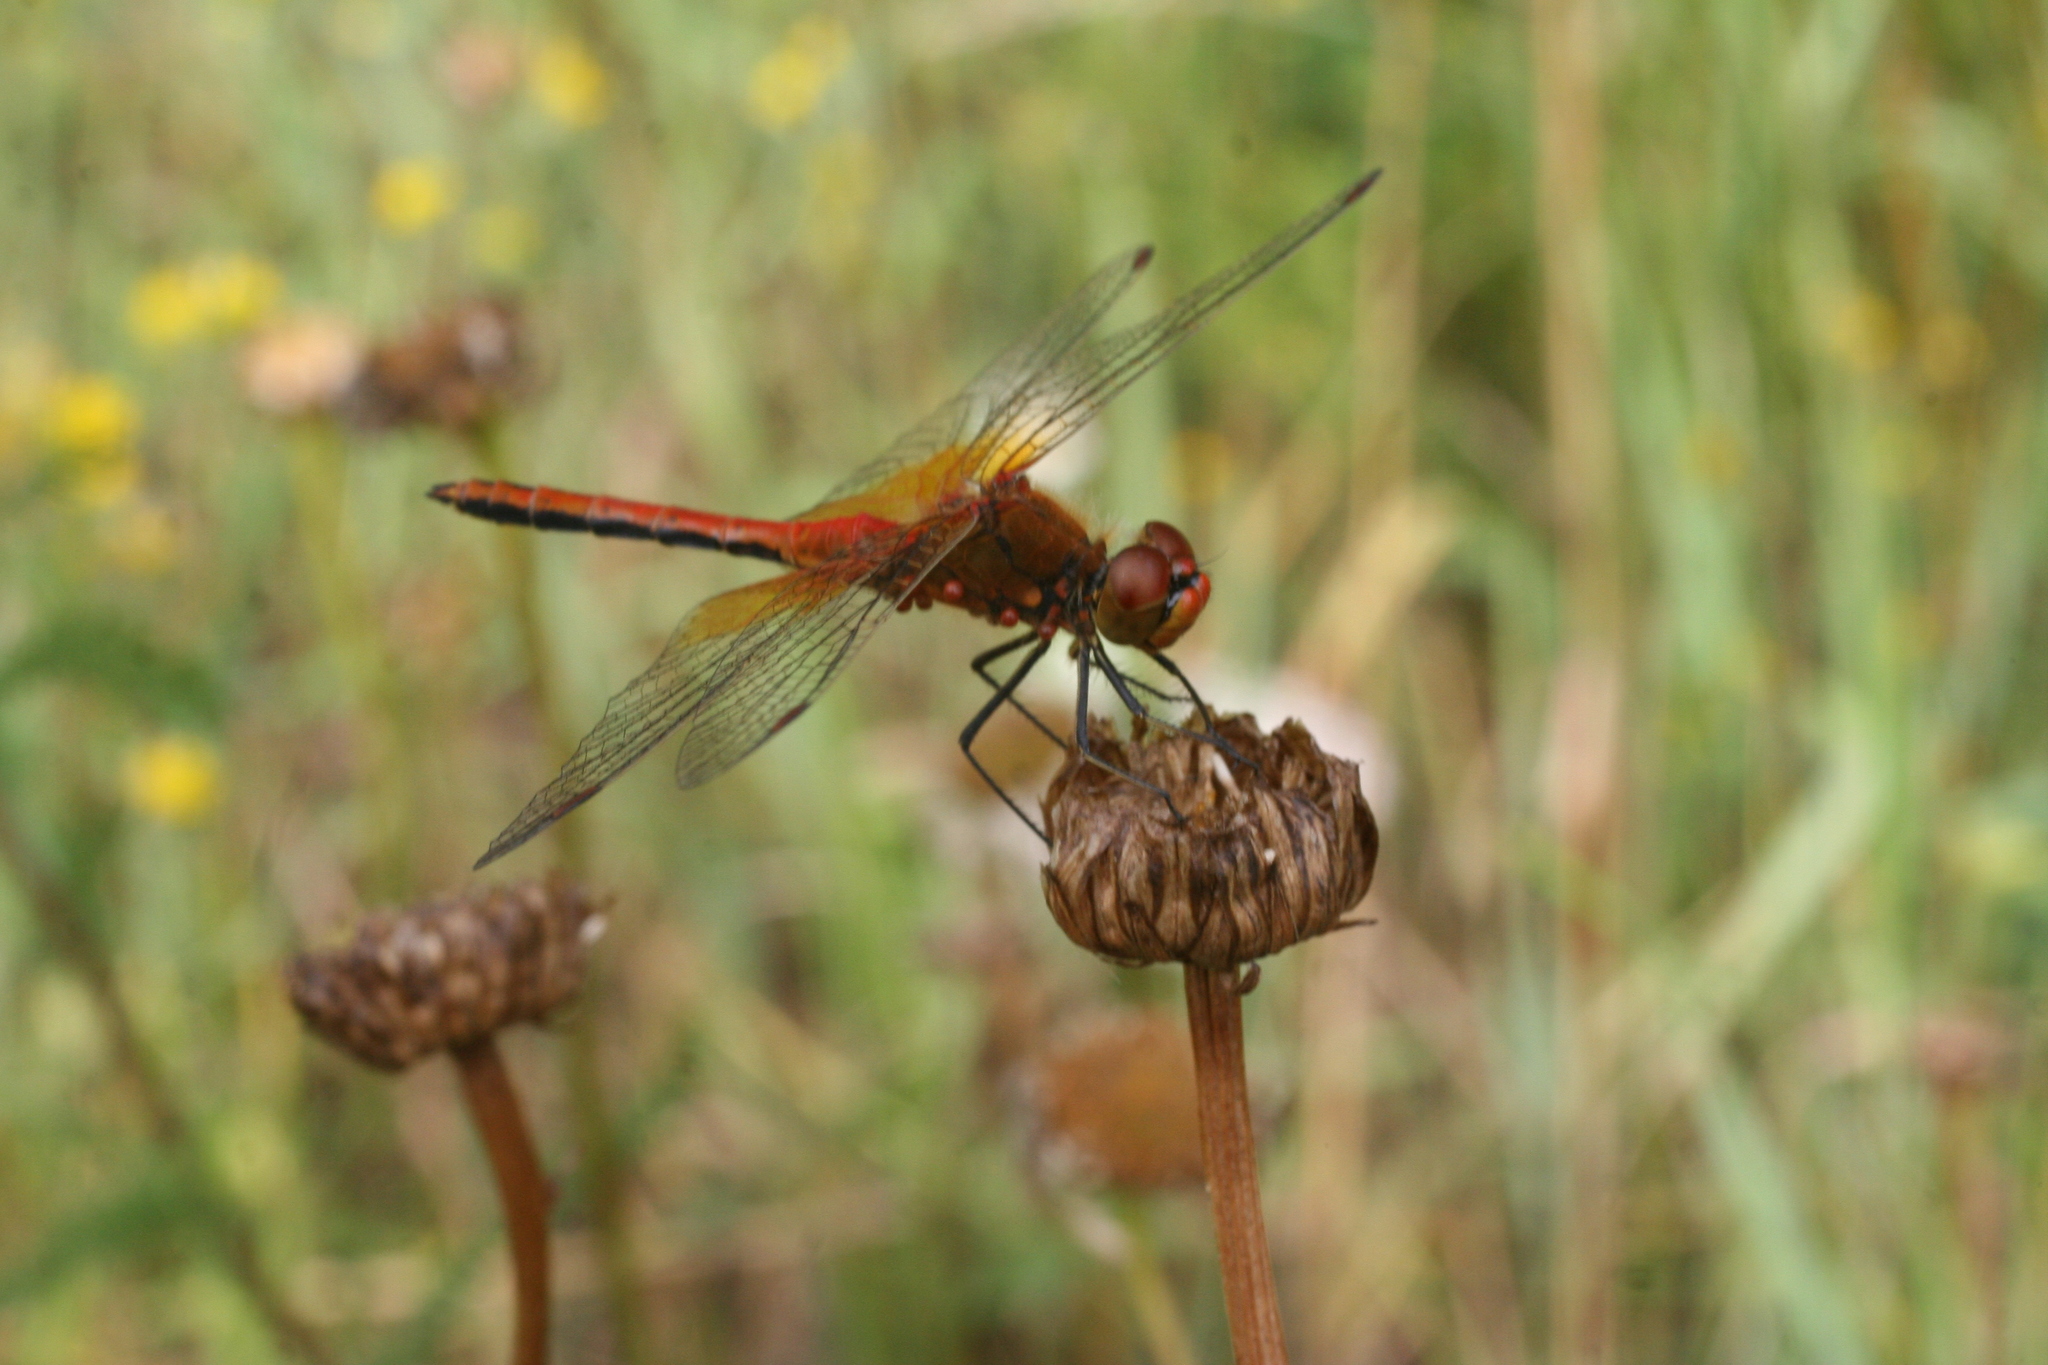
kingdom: Animalia
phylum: Arthropoda
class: Insecta
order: Odonata
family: Libellulidae
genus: Sympetrum
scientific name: Sympetrum flaveolum
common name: Yellow-winged darter
